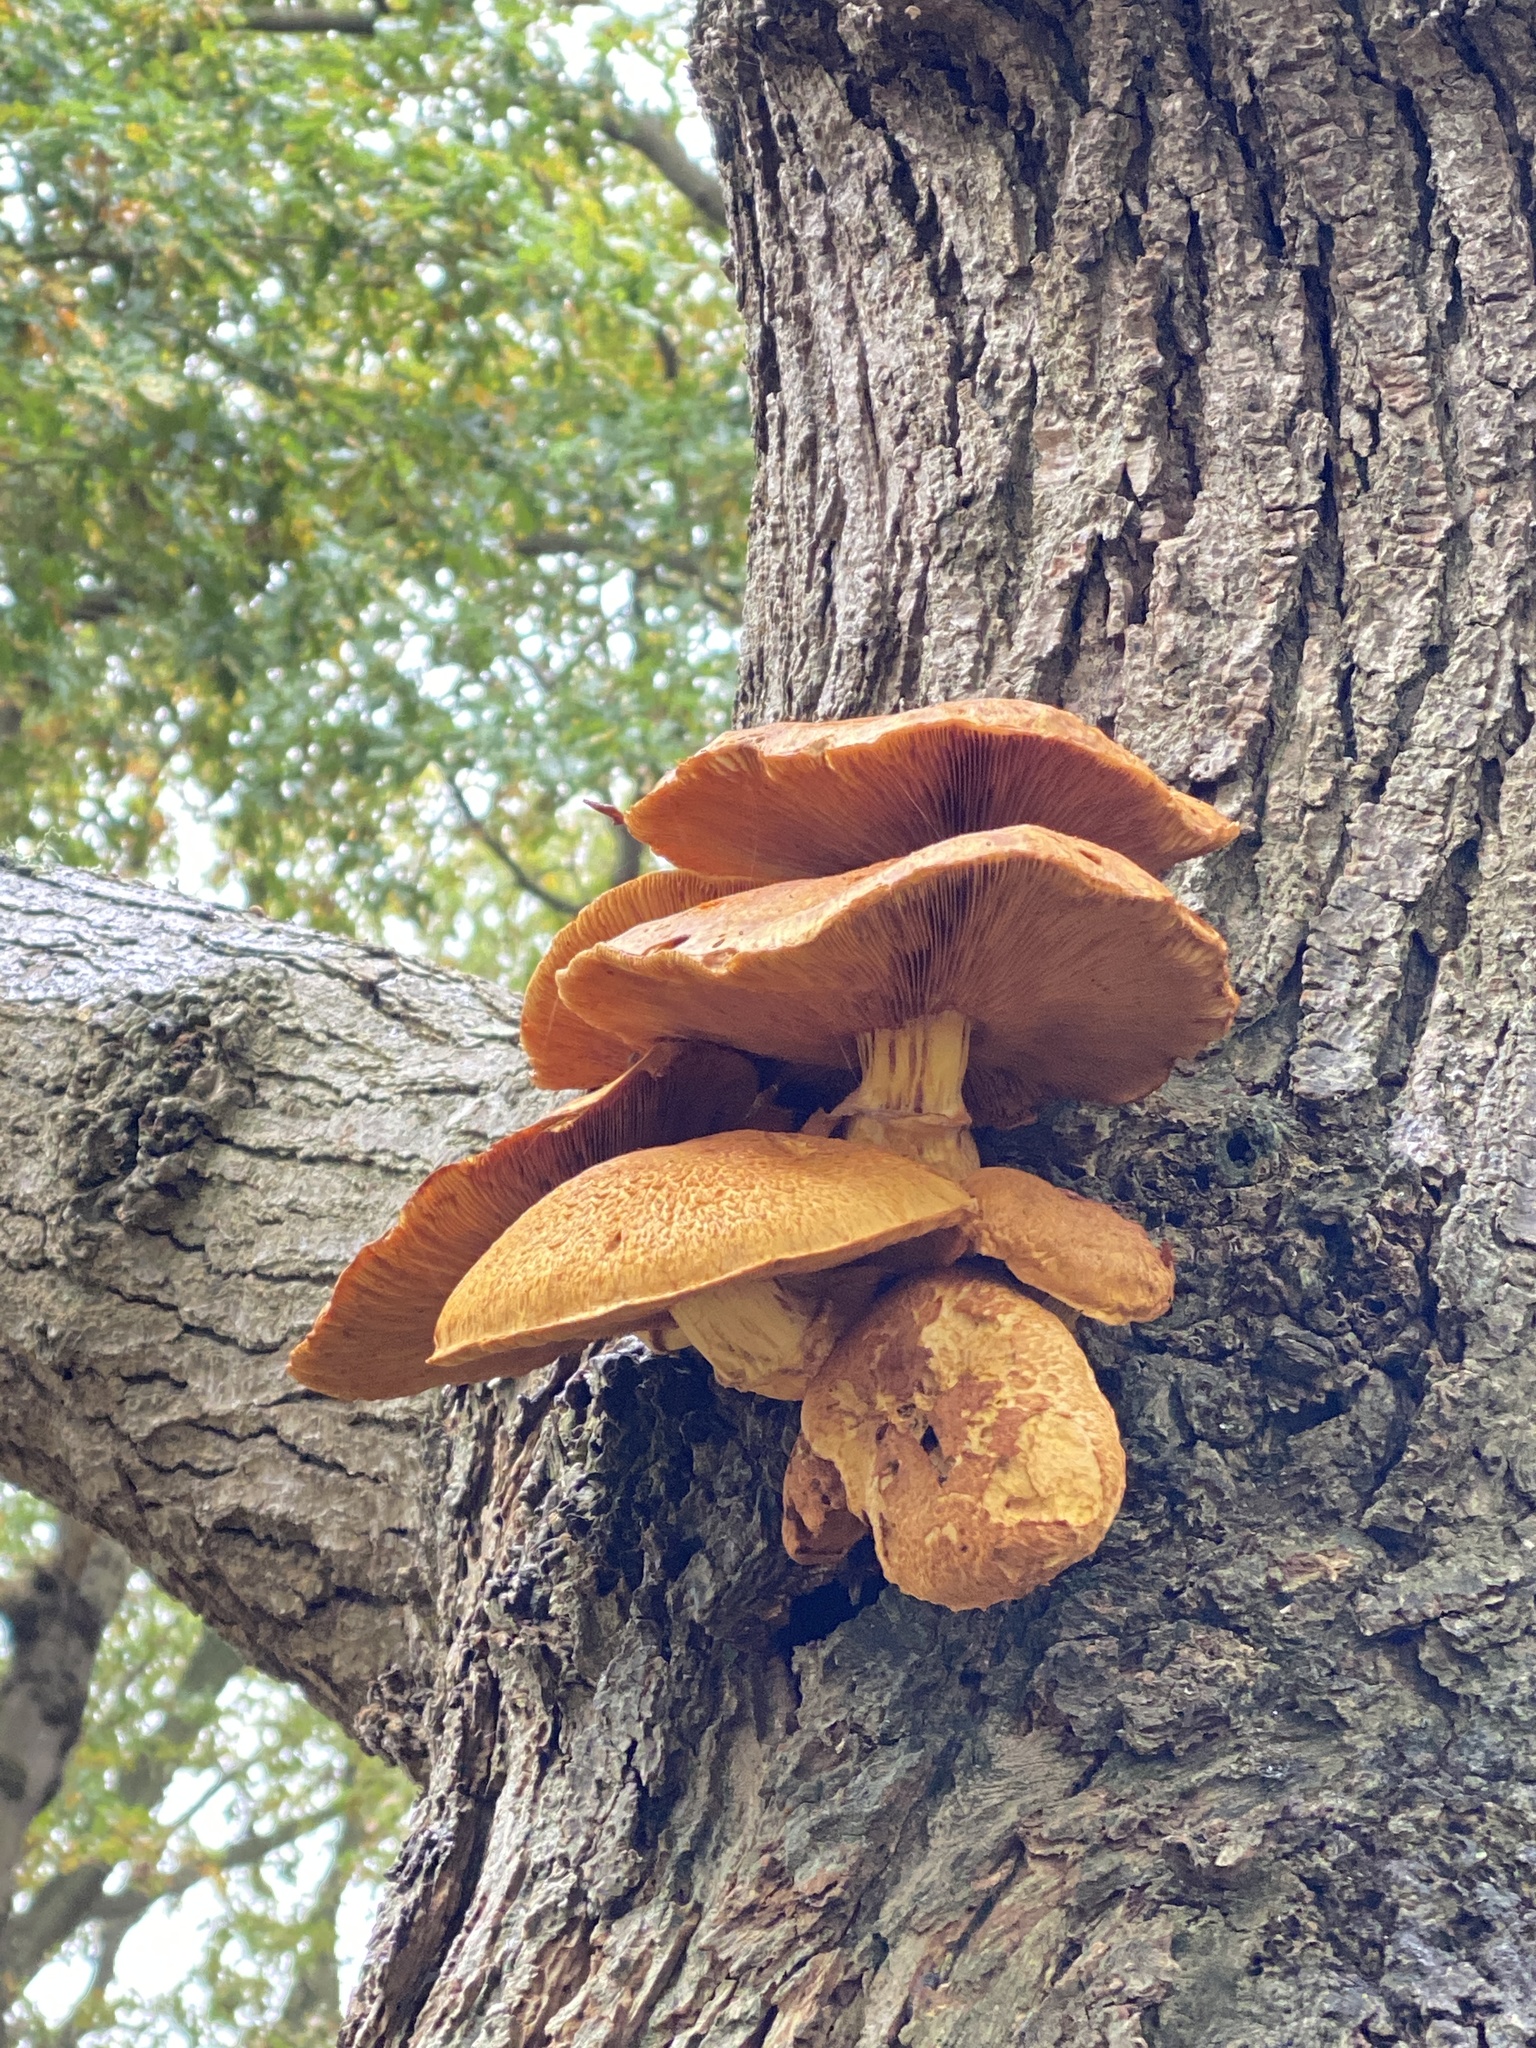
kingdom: Fungi
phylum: Basidiomycota
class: Agaricomycetes
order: Agaricales
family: Hymenogastraceae
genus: Gymnopilus
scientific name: Gymnopilus junonius
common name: Spectacular rustgill
